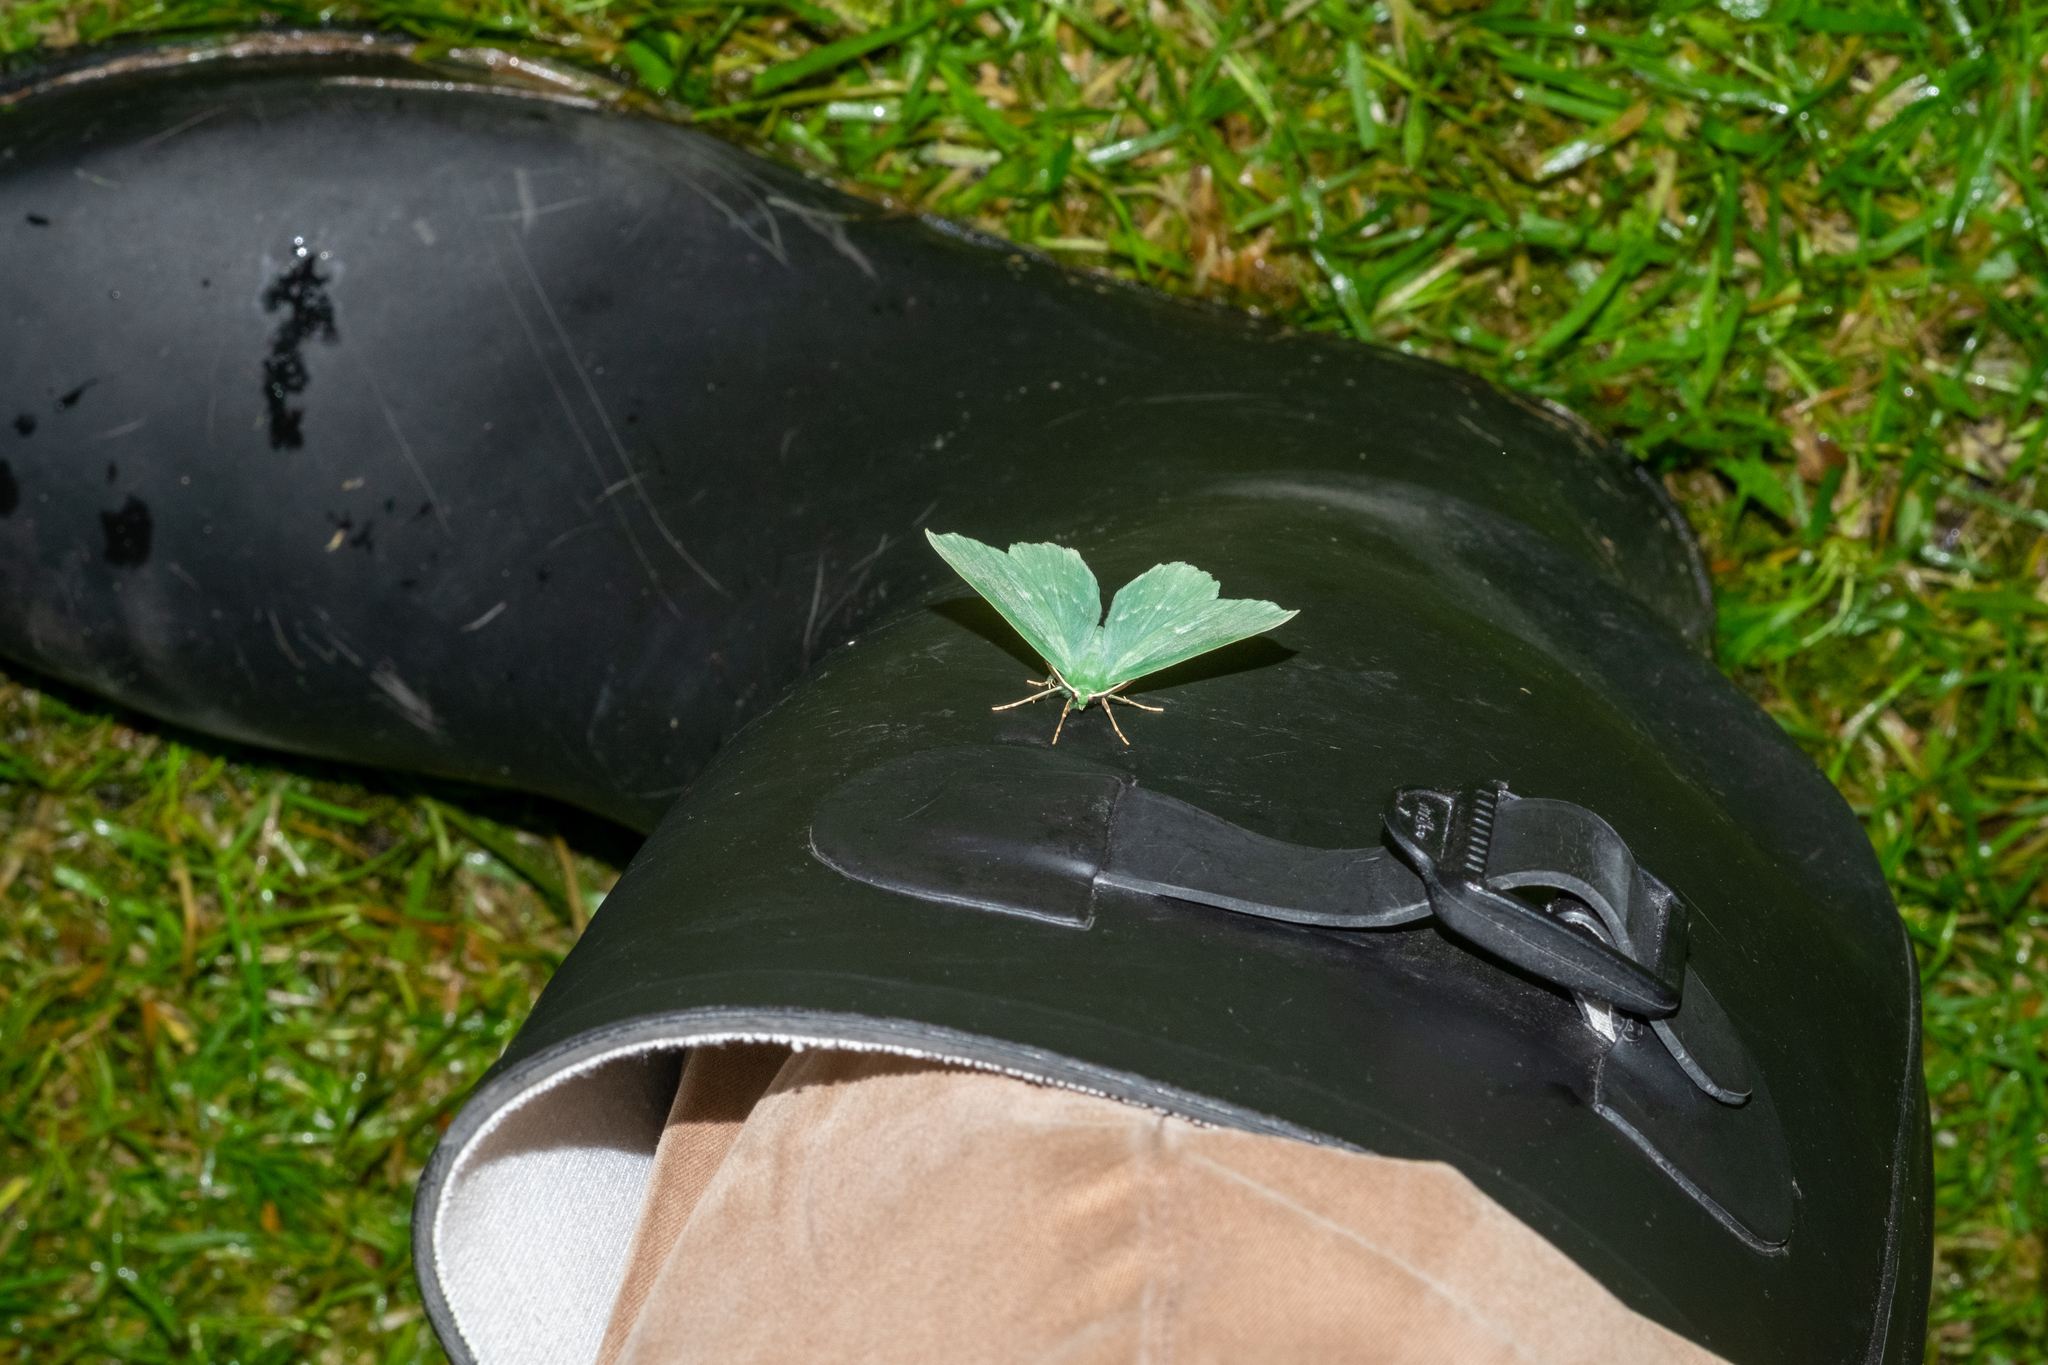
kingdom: Animalia
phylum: Arthropoda
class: Insecta
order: Lepidoptera
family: Geometridae
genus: Geometra
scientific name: Geometra papilionaria
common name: Large emerald
